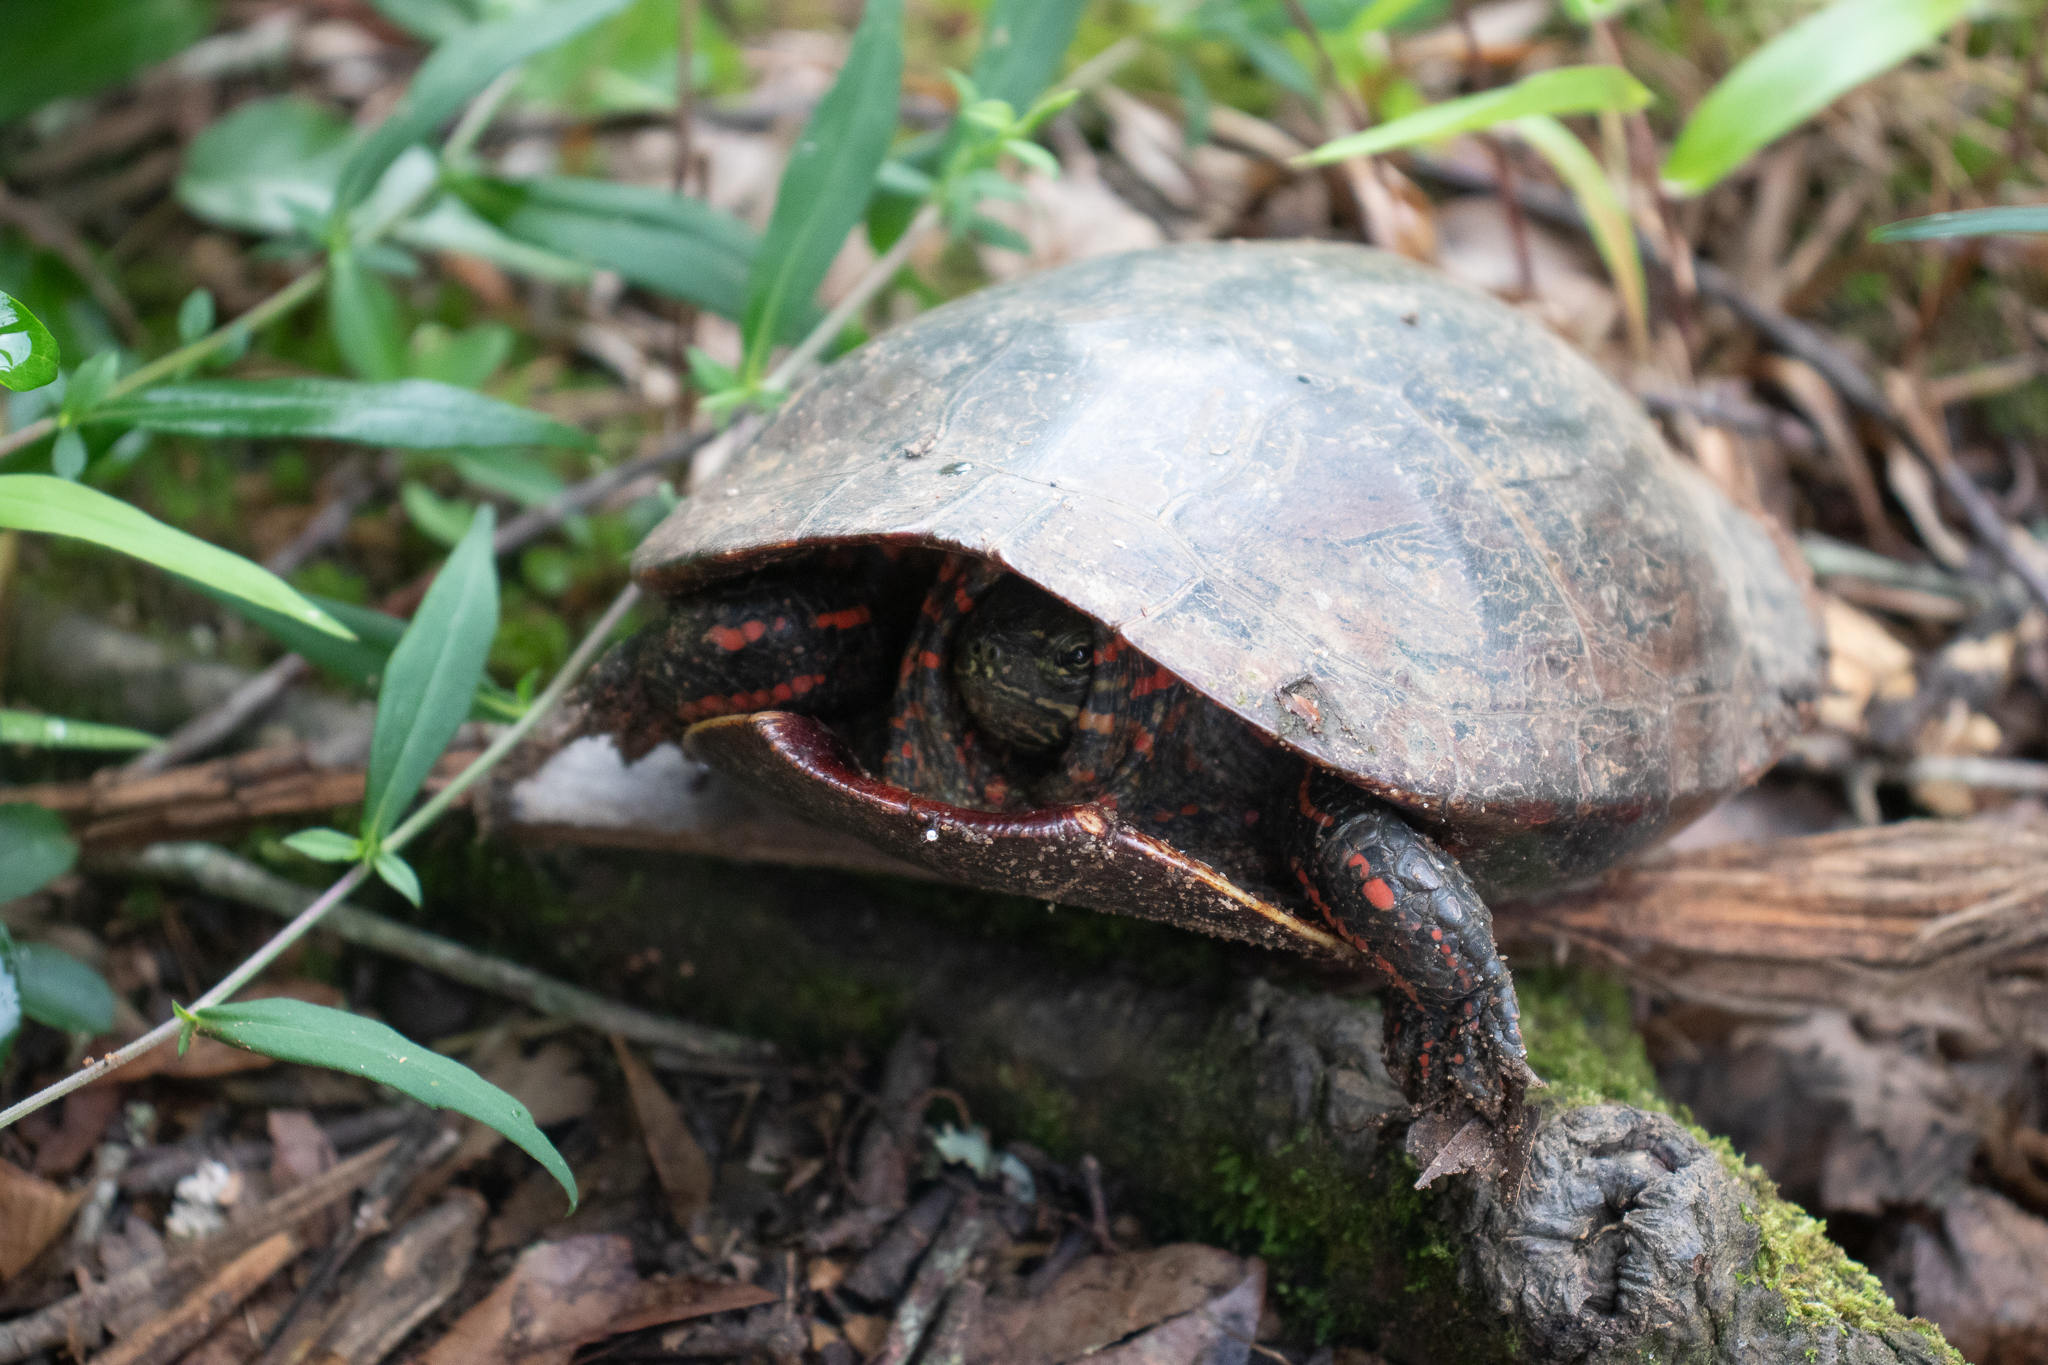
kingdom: Animalia
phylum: Chordata
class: Testudines
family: Emydidae
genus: Chrysemys
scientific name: Chrysemys picta
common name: Painted turtle
